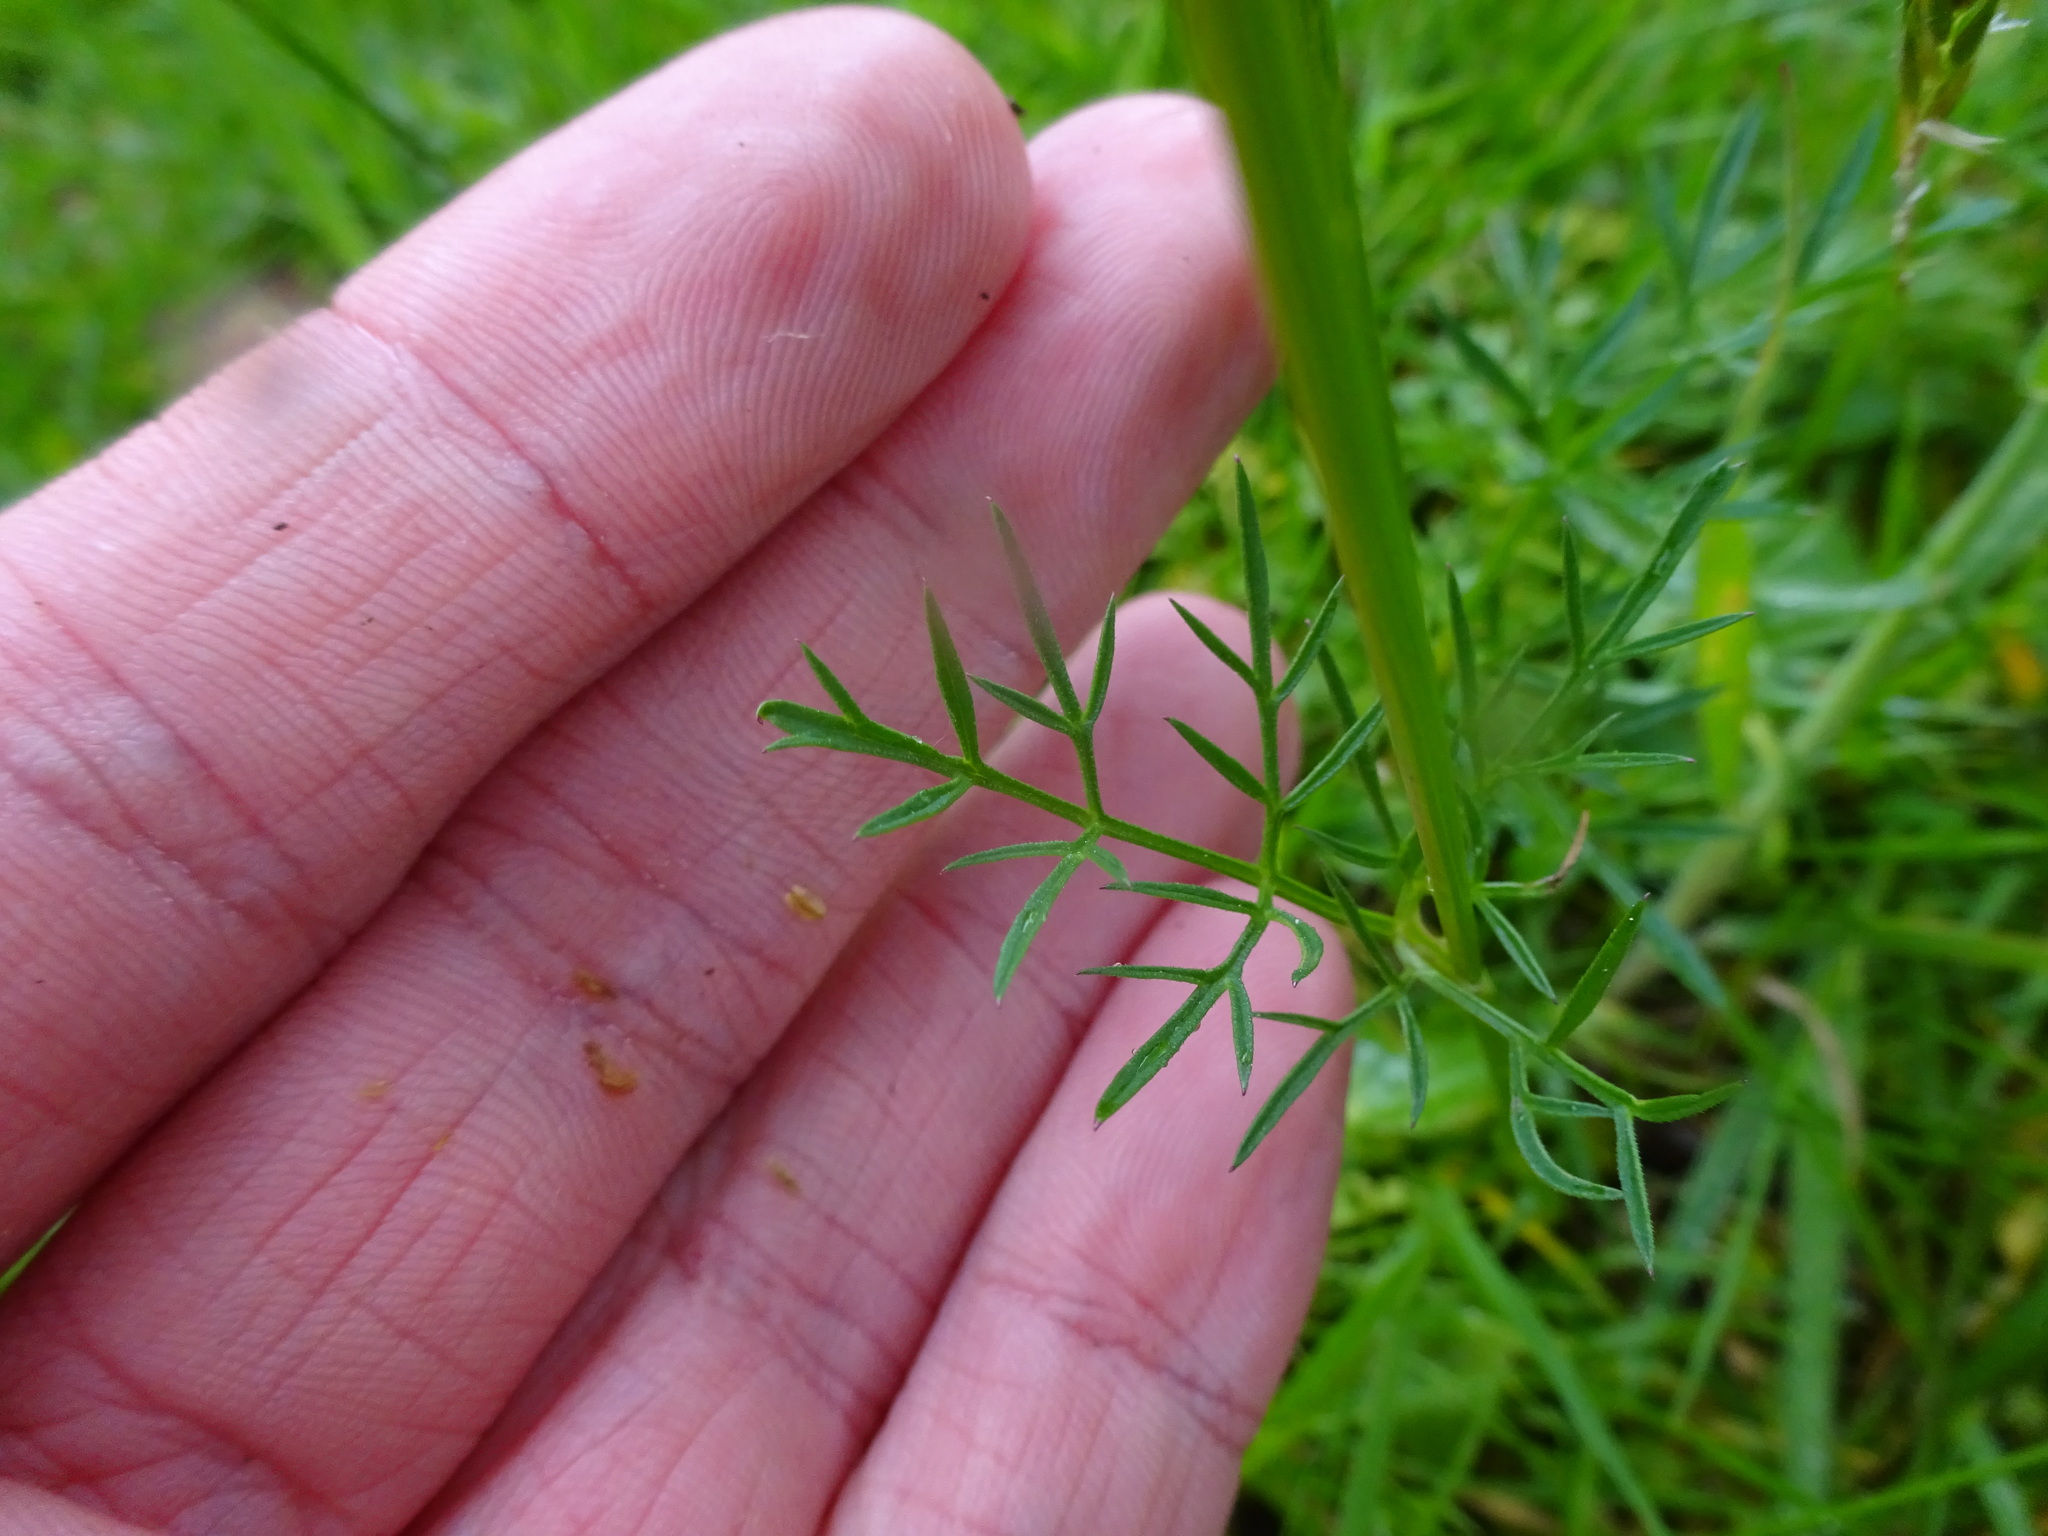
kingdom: Plantae
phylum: Tracheophyta
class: Magnoliopsida
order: Apiales
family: Apiaceae
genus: Conopodium
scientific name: Conopodium majus
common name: Pignut
